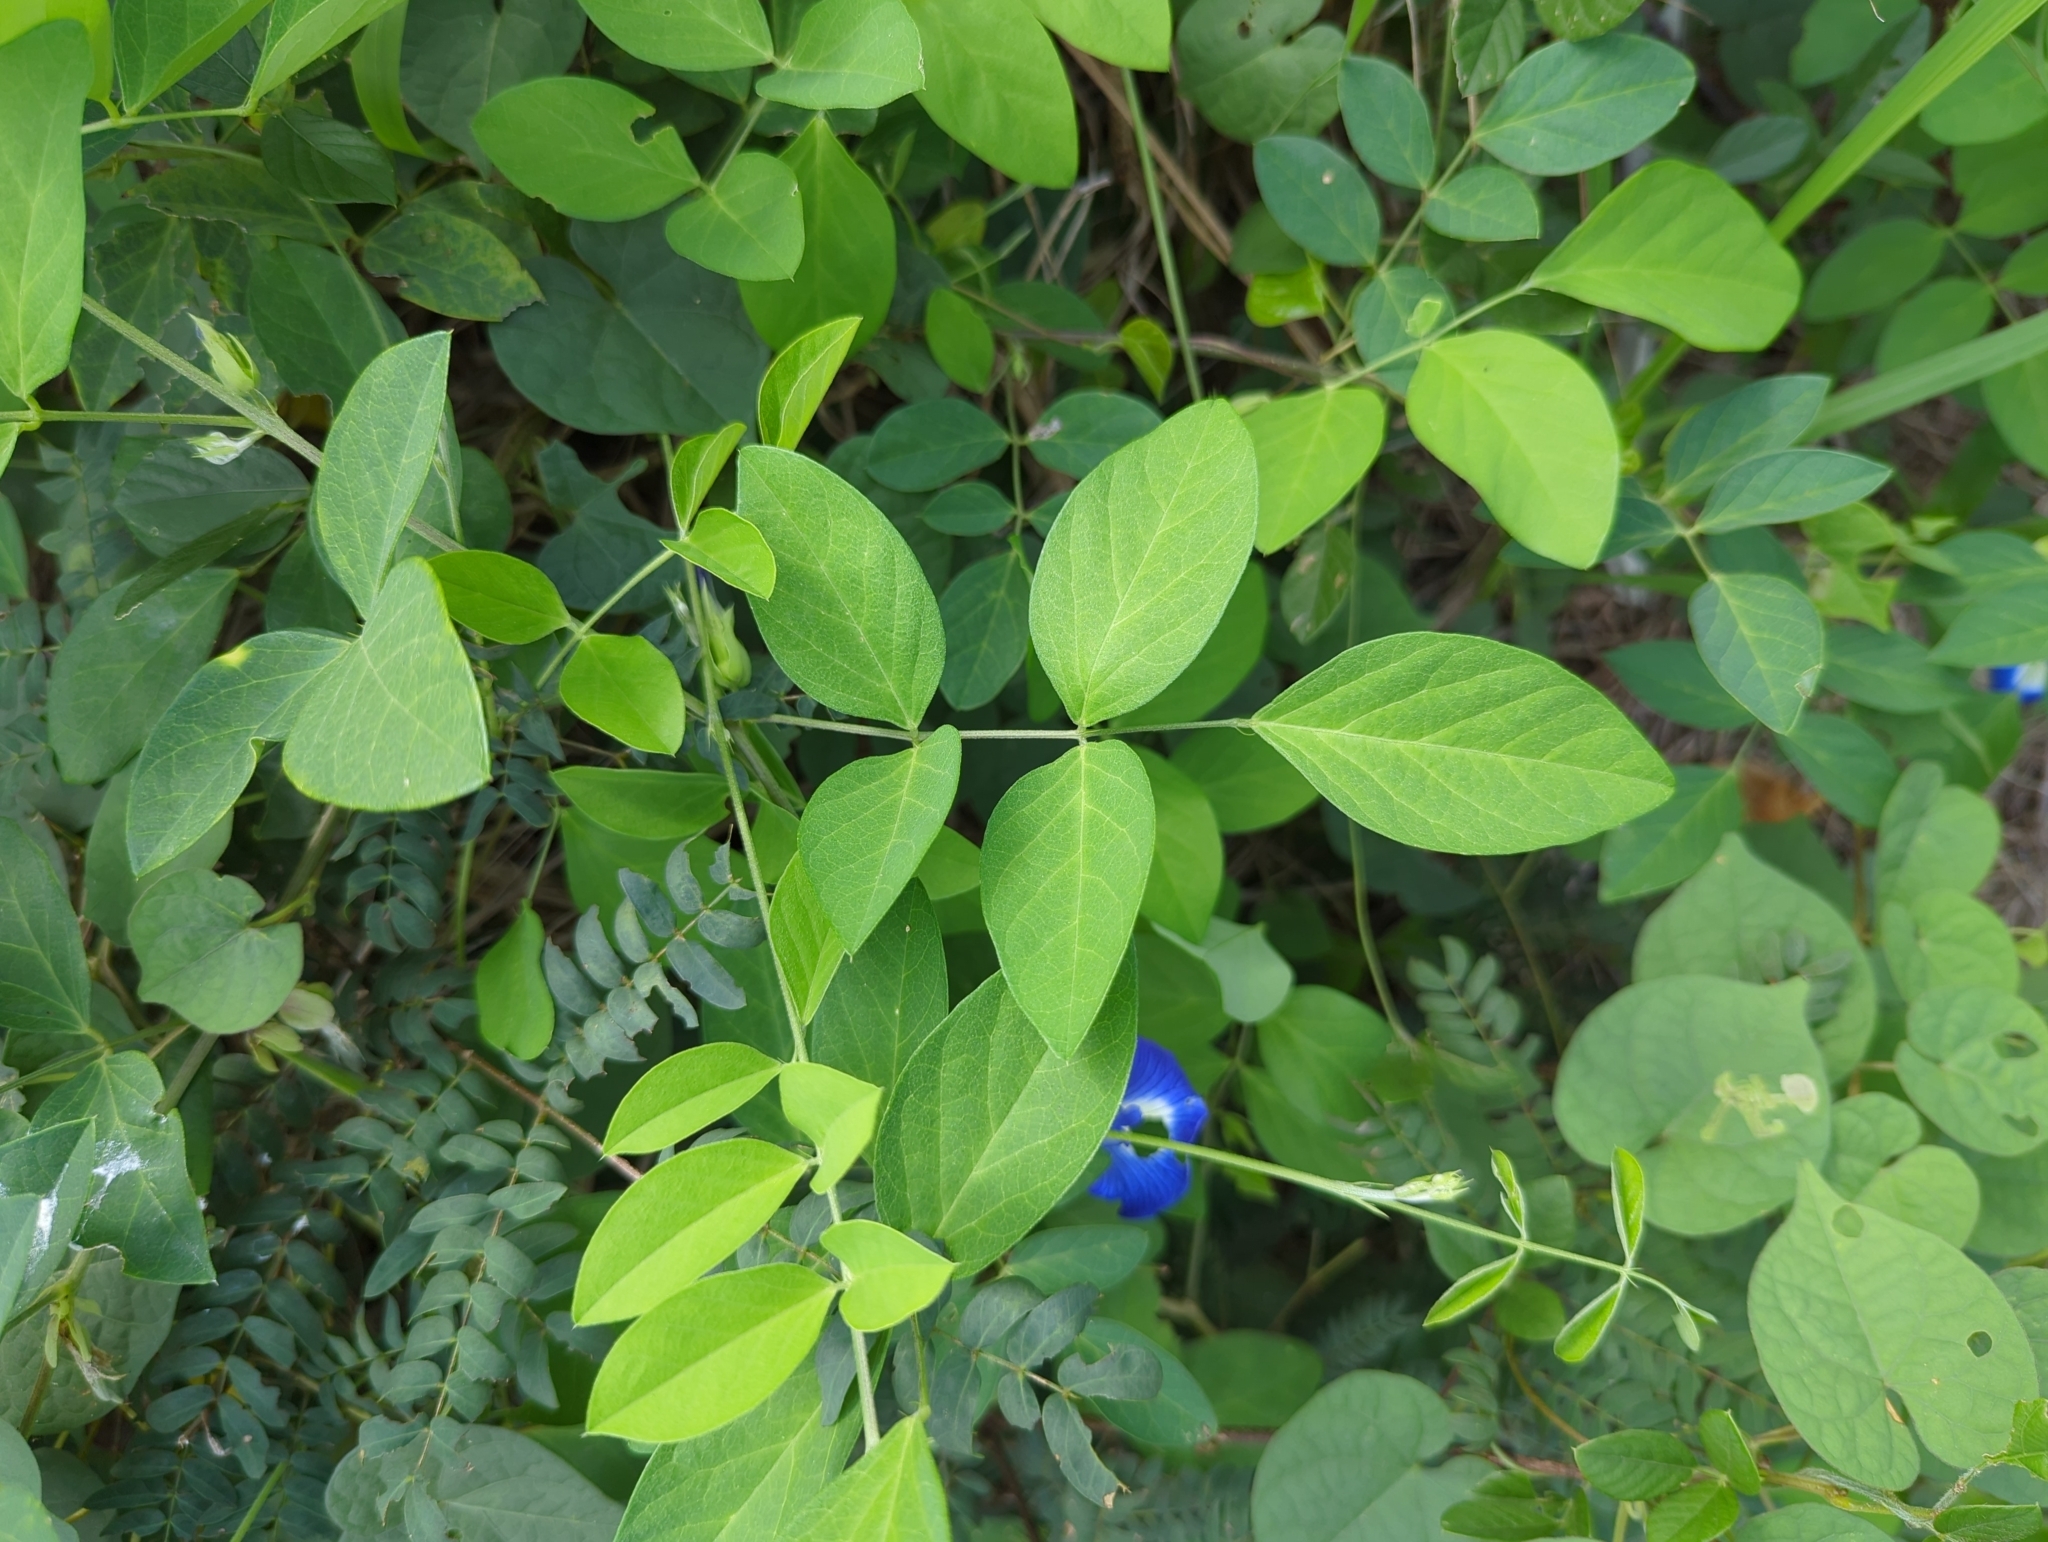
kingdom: Plantae
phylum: Tracheophyta
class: Magnoliopsida
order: Fabales
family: Fabaceae
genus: Clitoria
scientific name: Clitoria ternatea
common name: Asian pigeonwings
